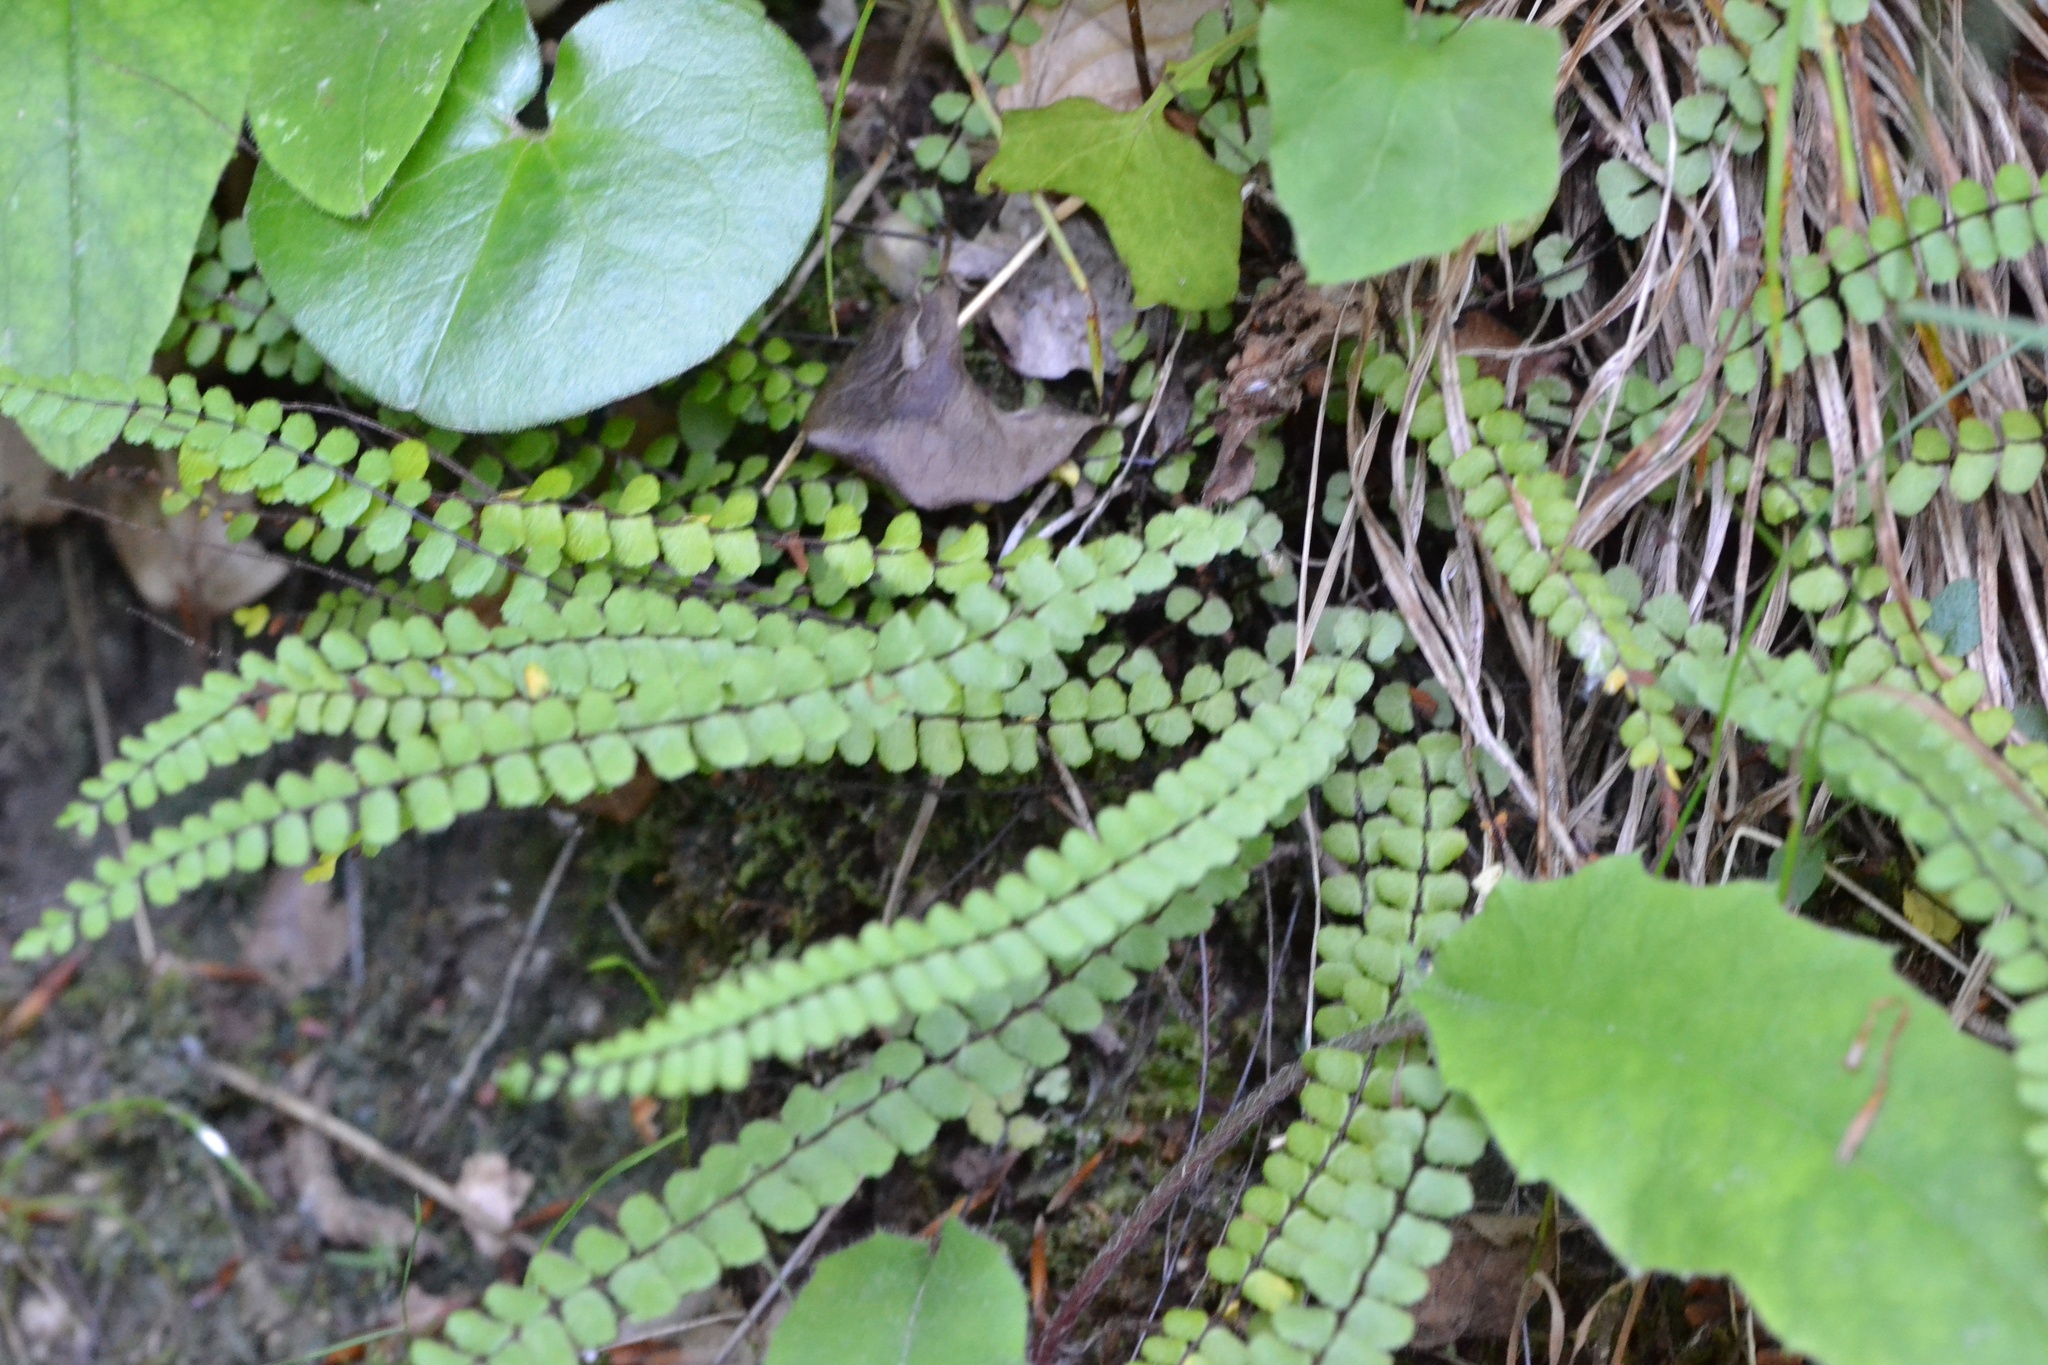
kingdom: Plantae
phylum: Tracheophyta
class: Polypodiopsida
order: Polypodiales
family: Aspleniaceae
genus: Asplenium
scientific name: Asplenium trichomanes
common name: Maidenhair spleenwort
